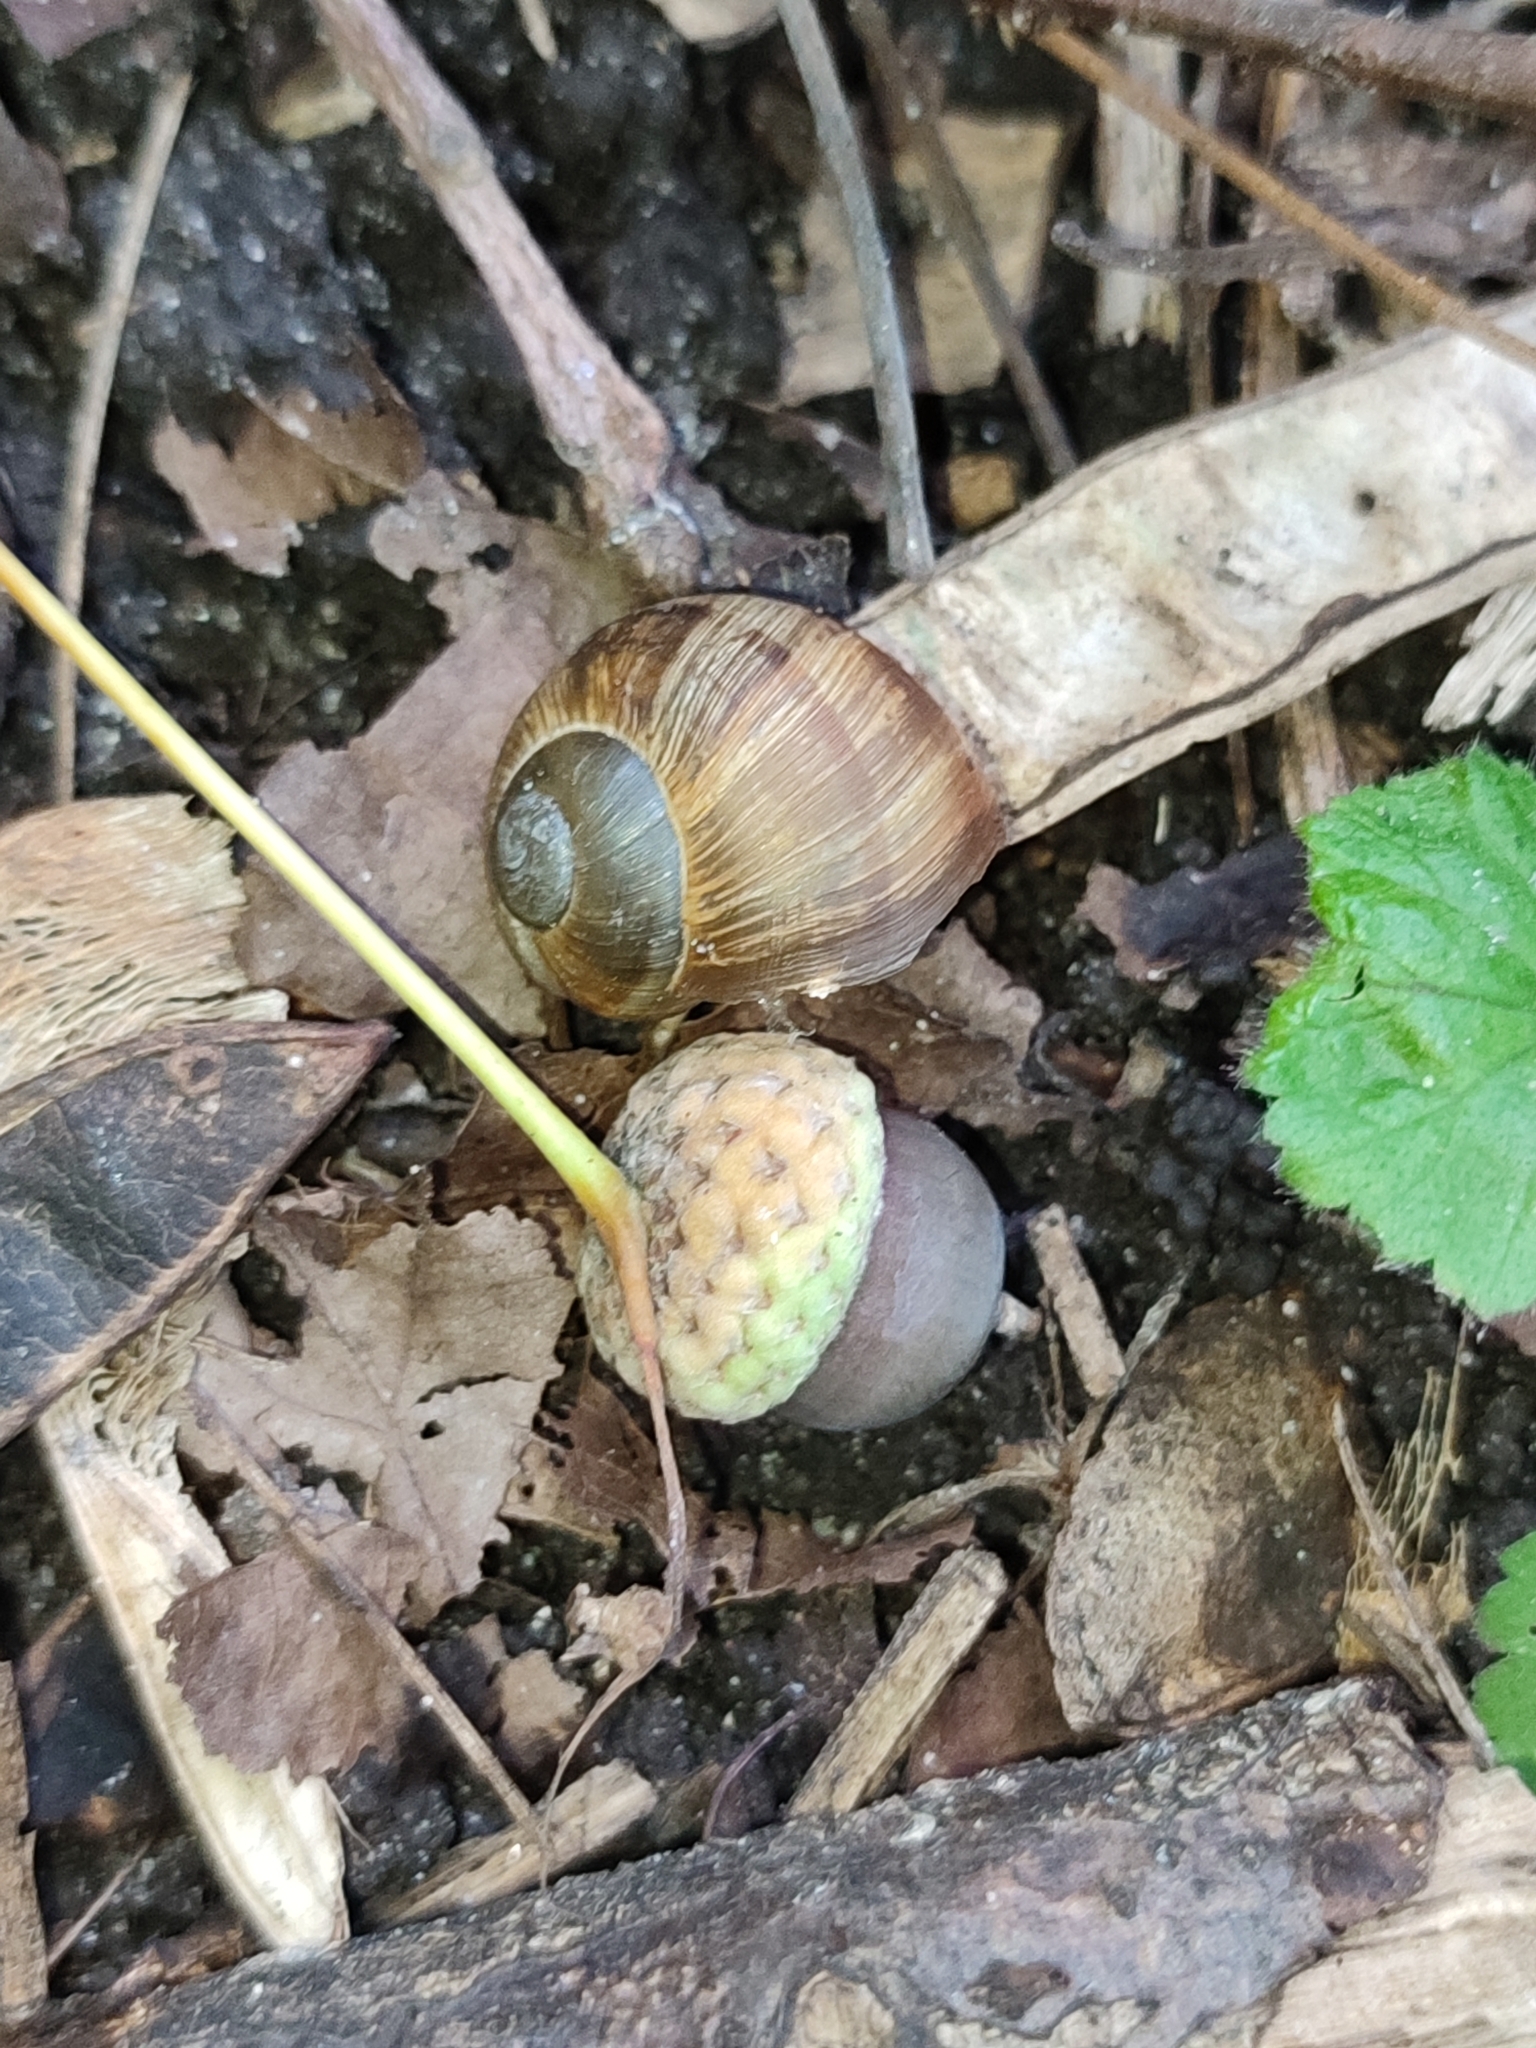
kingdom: Animalia
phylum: Mollusca
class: Gastropoda
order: Stylommatophora
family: Helicidae
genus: Helix
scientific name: Helix pomatia
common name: Roman snail
